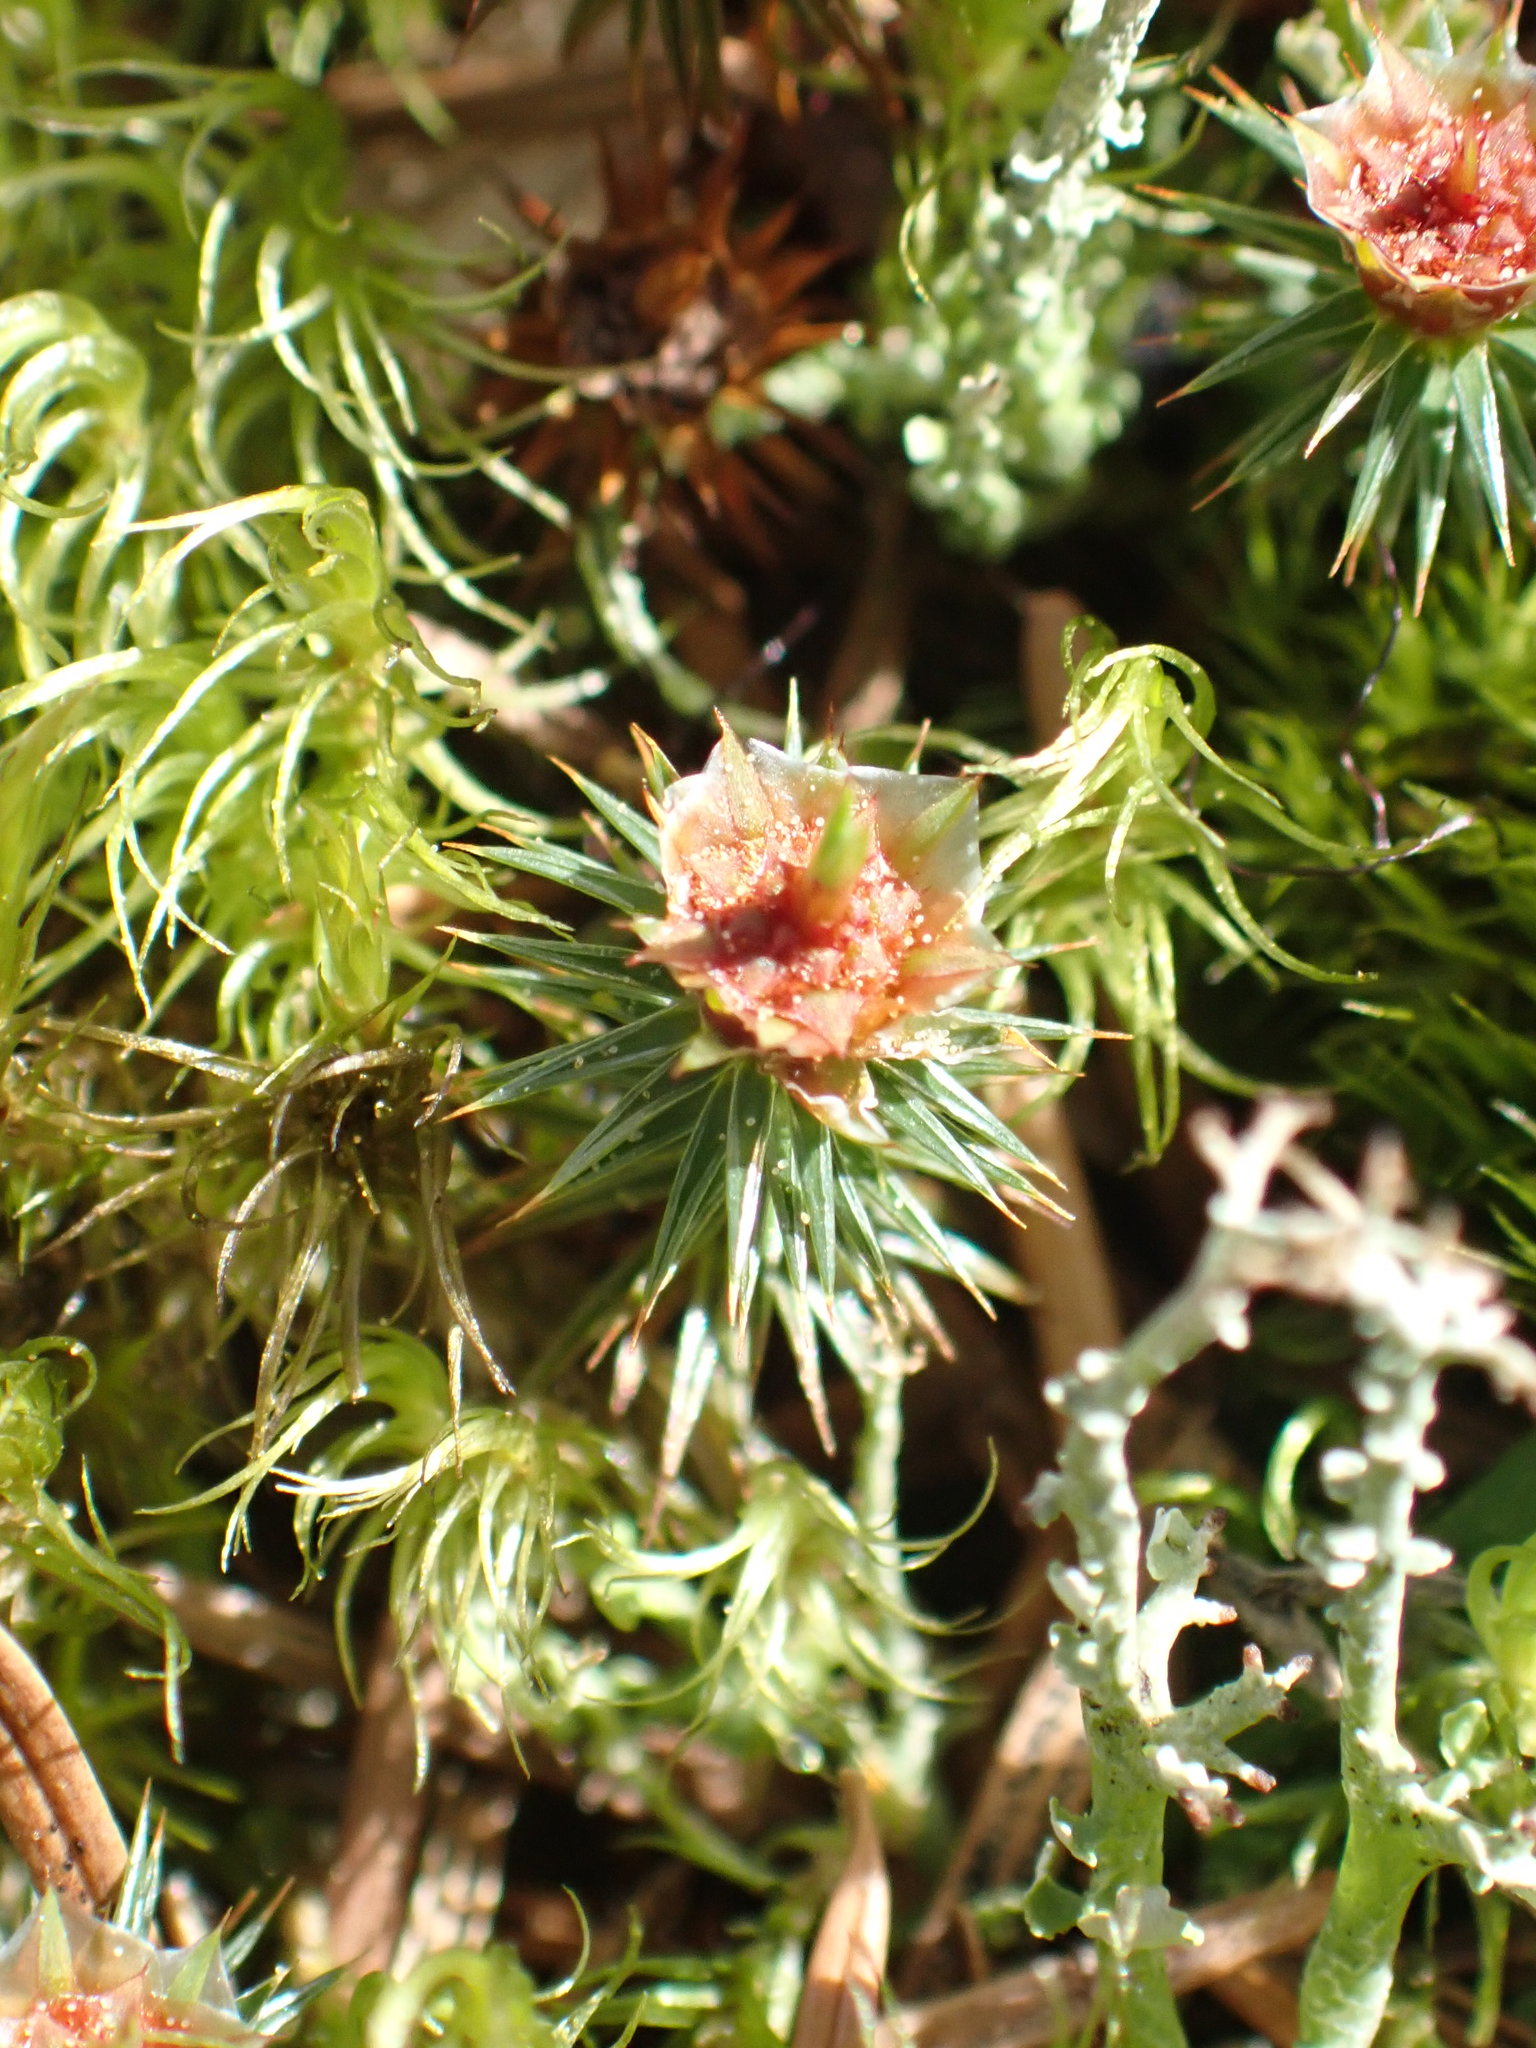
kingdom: Plantae
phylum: Bryophyta
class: Polytrichopsida
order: Polytrichales
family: Polytrichaceae
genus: Polytrichum
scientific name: Polytrichum juniperinum
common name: Juniper haircap moss
